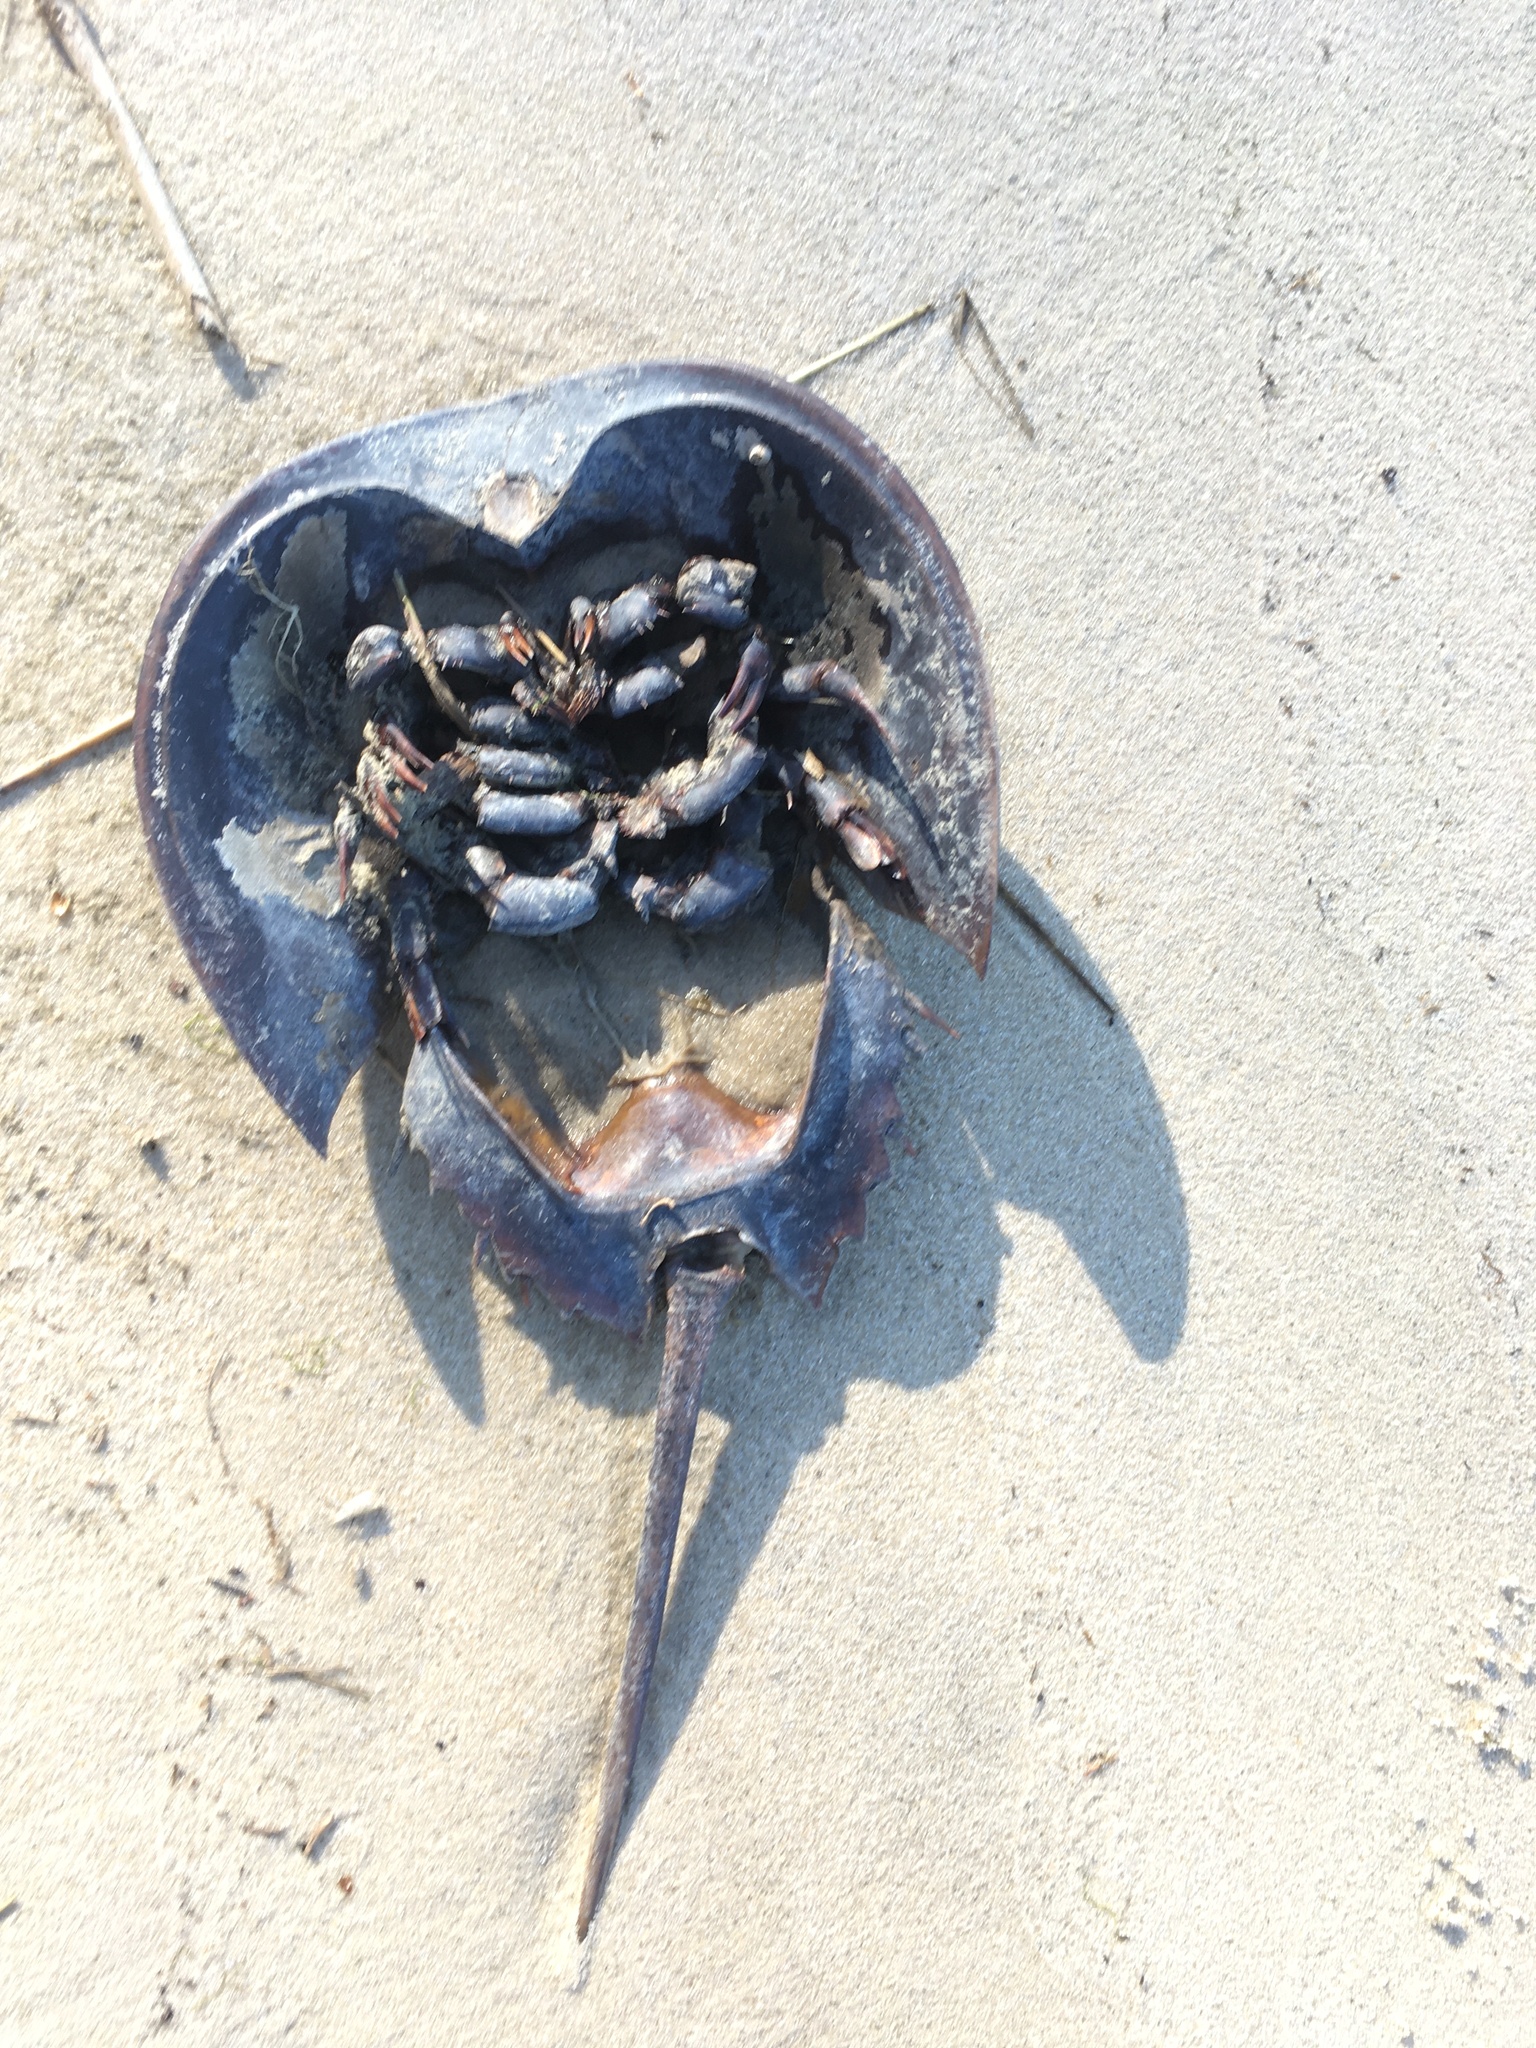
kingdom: Animalia
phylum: Arthropoda
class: Merostomata
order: Xiphosurida
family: Limulidae
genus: Limulus
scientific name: Limulus polyphemus
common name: Horseshoe crab
